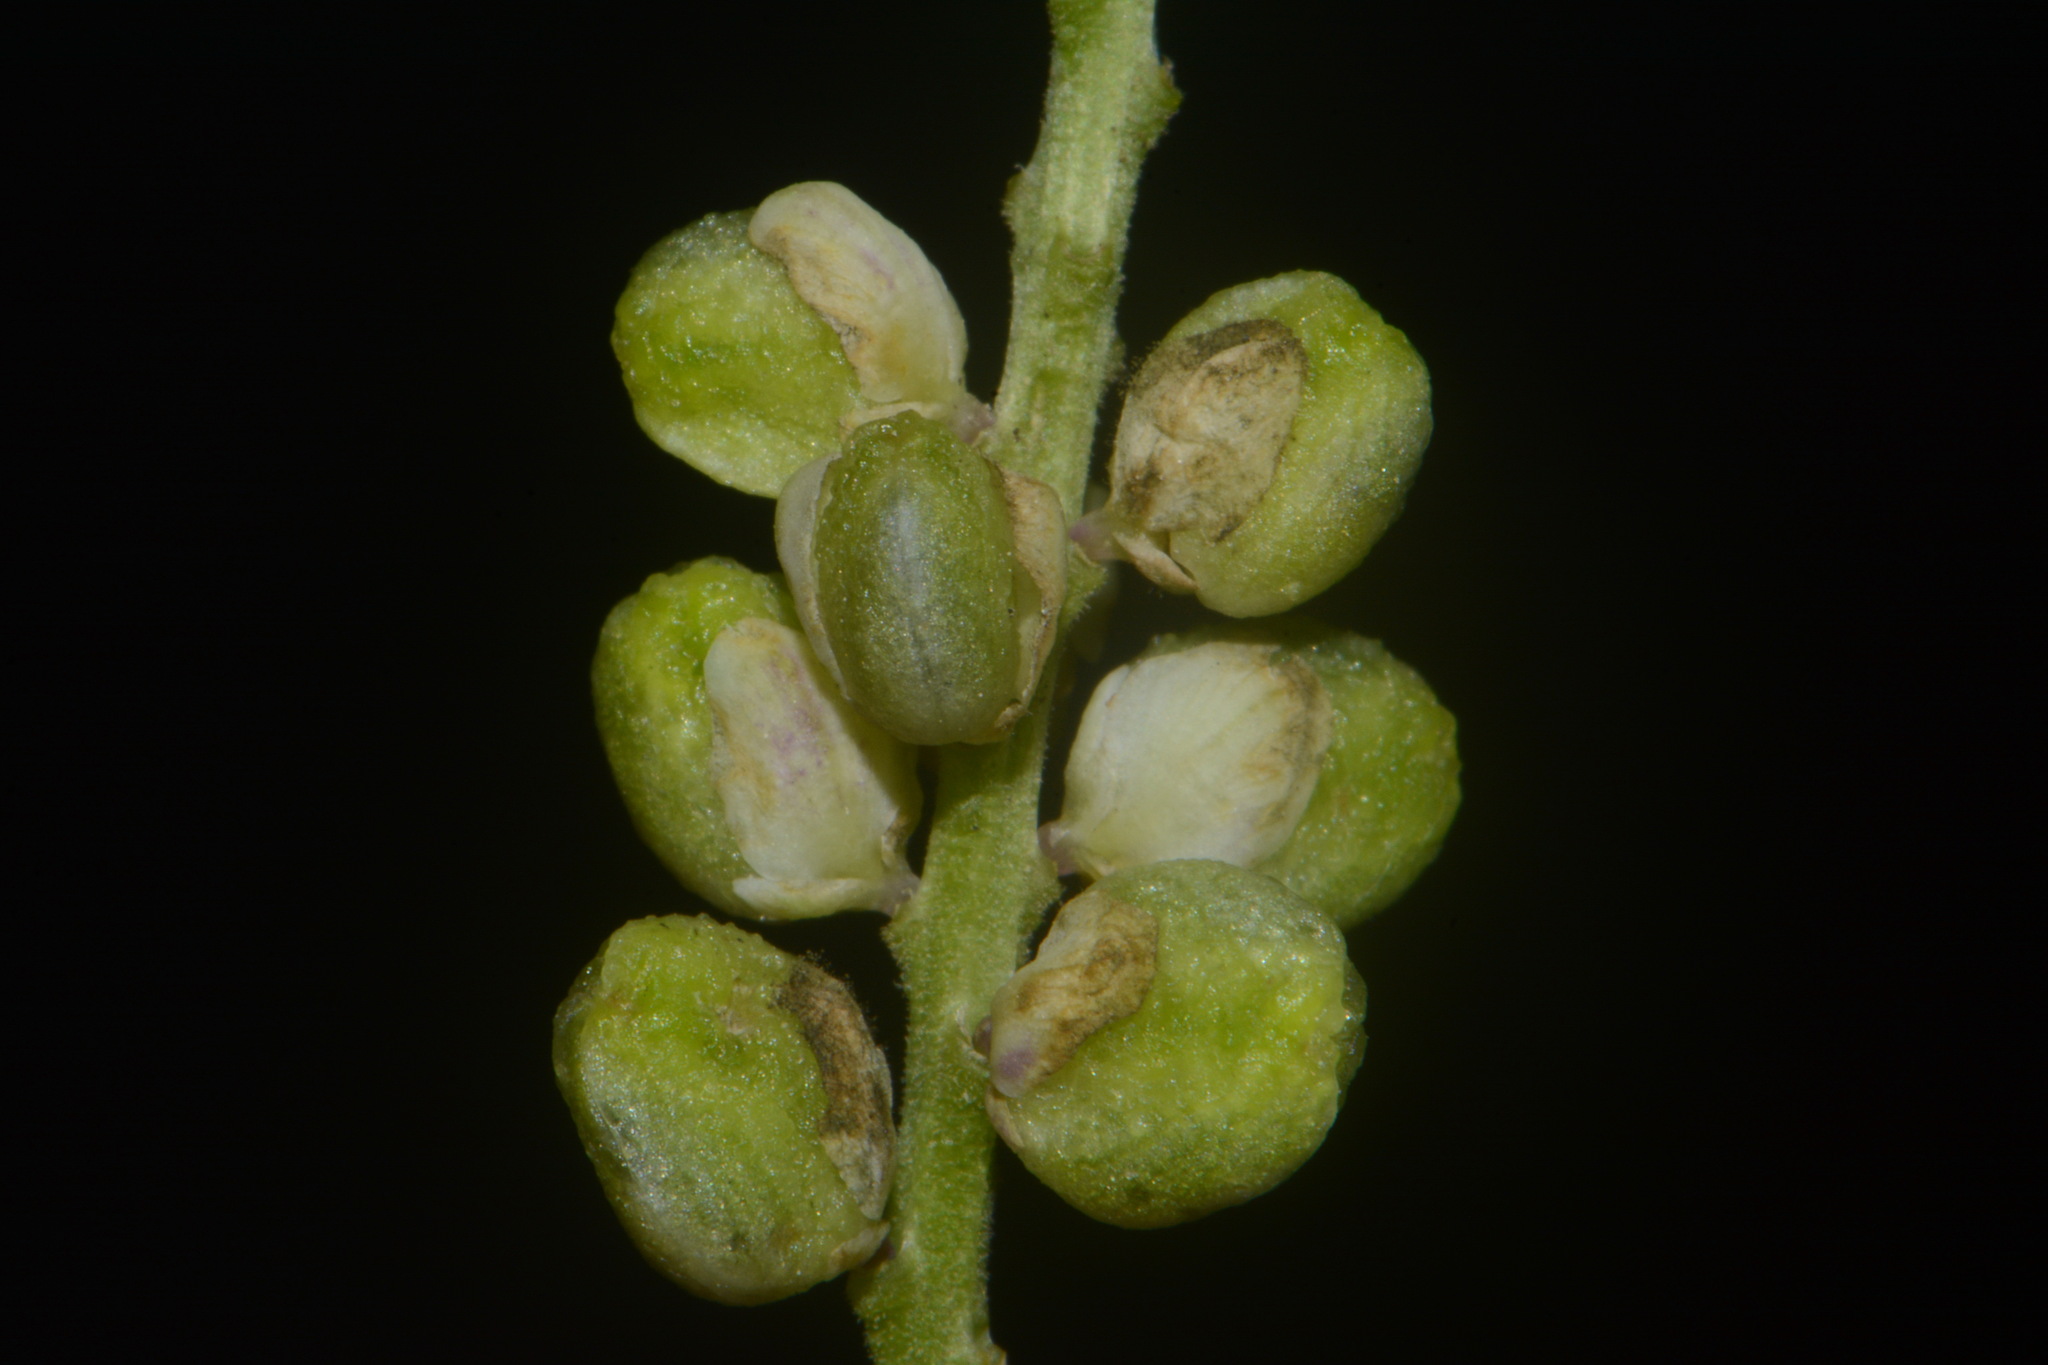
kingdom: Plantae
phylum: Tracheophyta
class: Magnoliopsida
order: Fabales
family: Polygalaceae
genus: Polygala
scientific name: Polygala senega
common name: Seneca snakeroot
